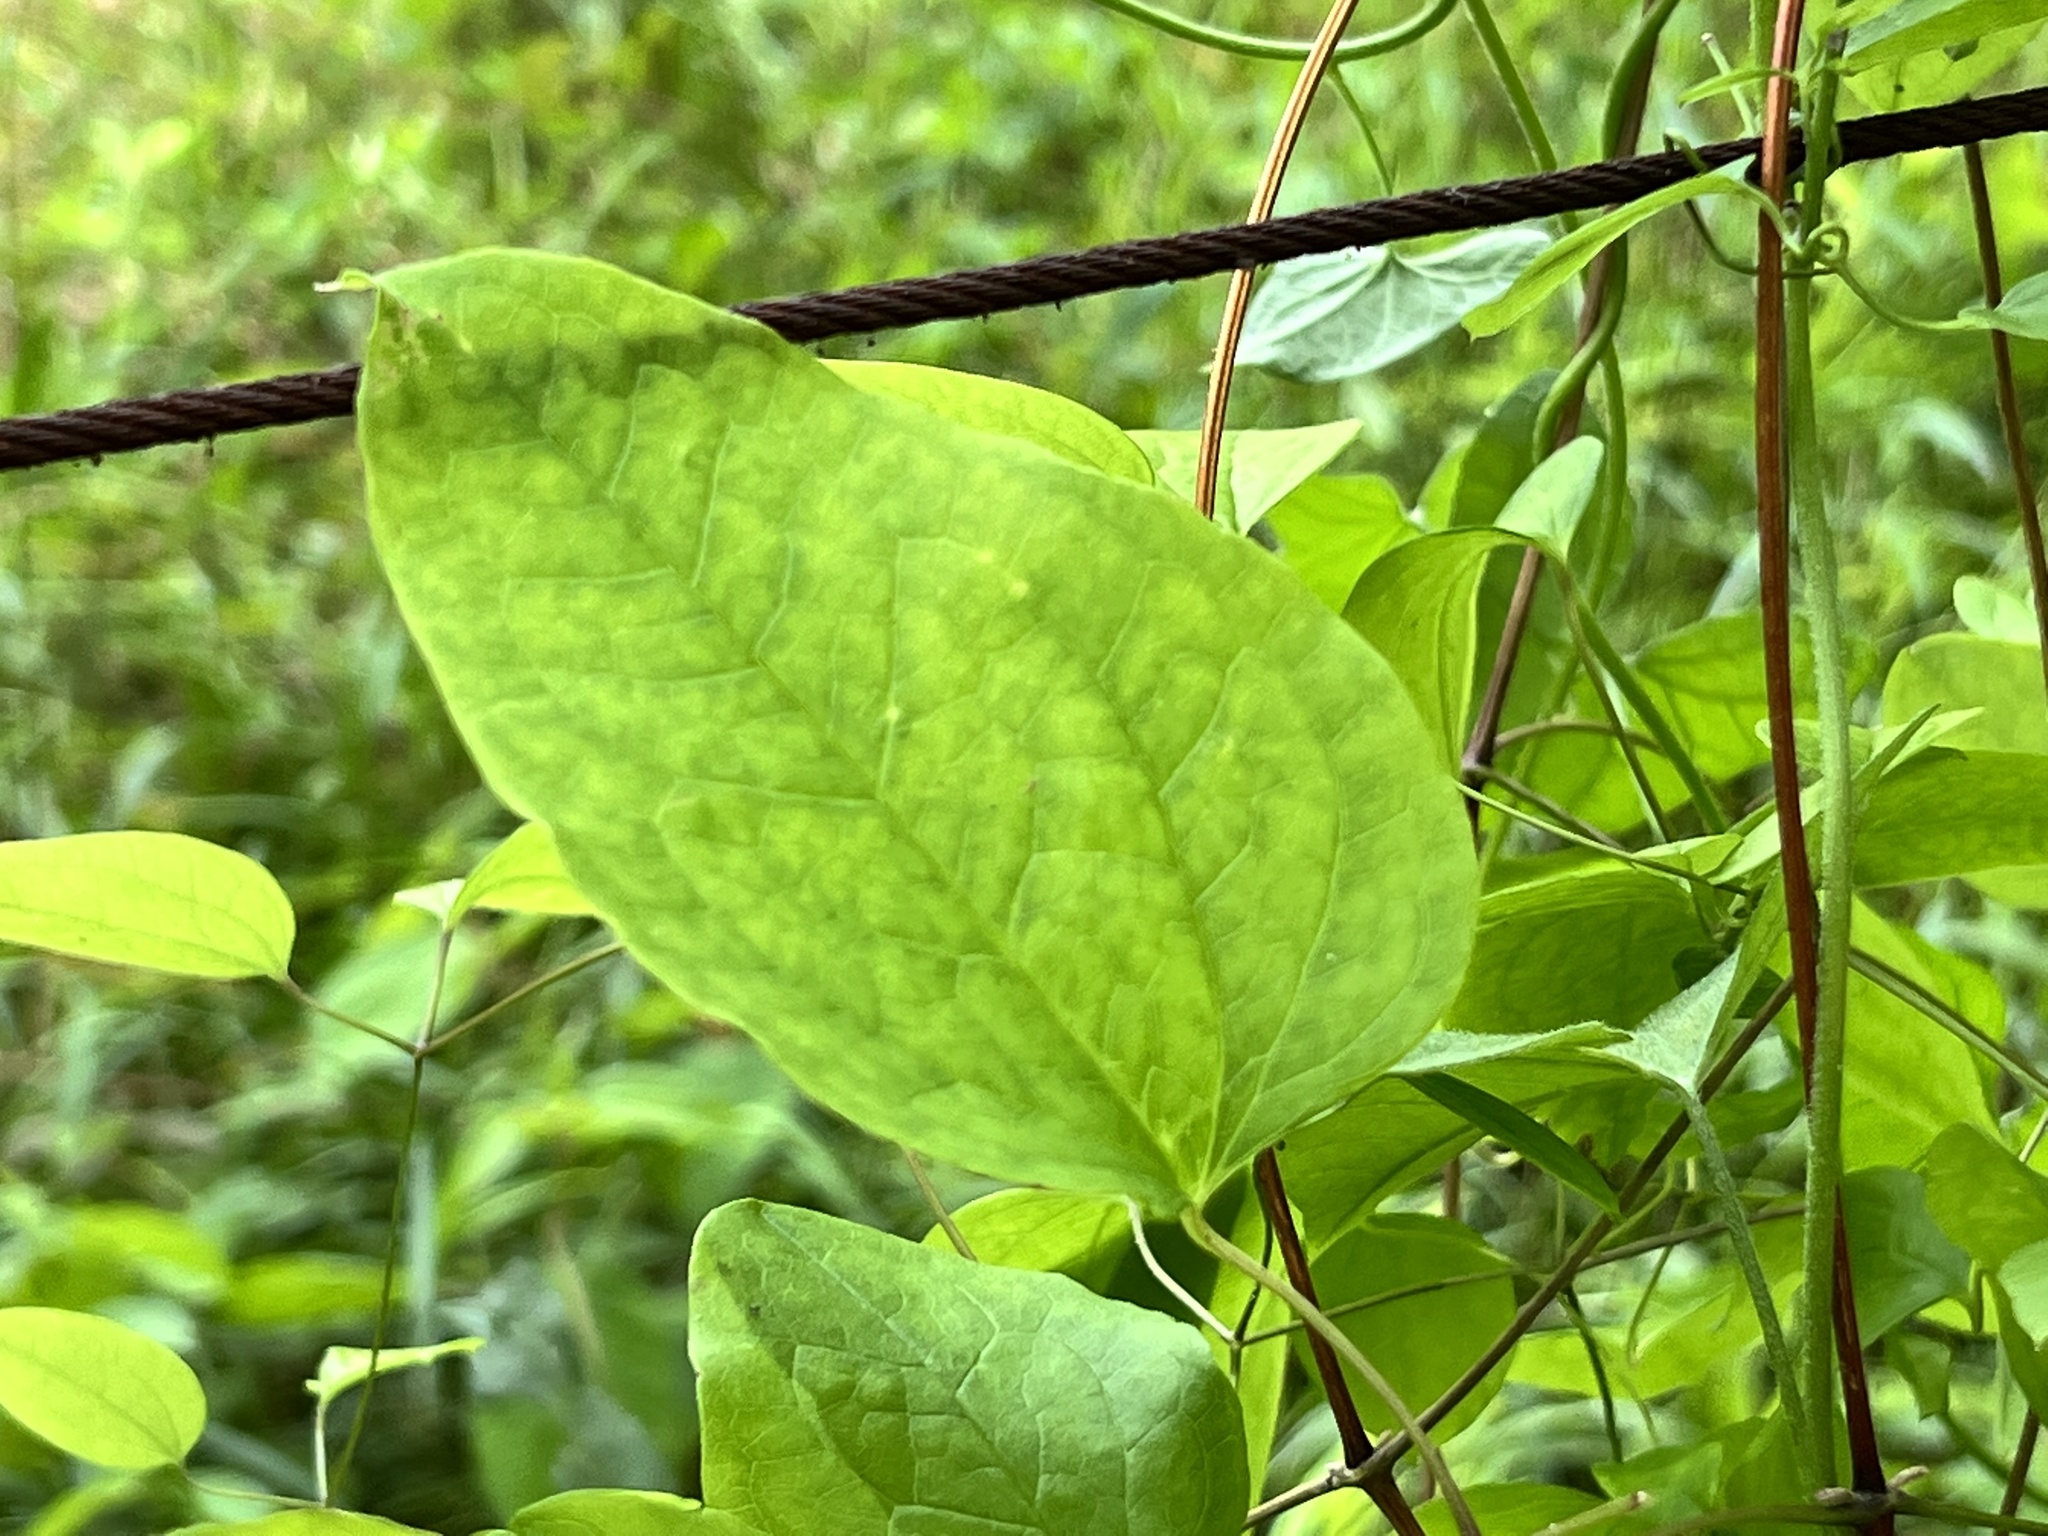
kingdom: Plantae
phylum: Tracheophyta
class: Magnoliopsida
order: Ranunculales
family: Ranunculaceae
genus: Clematis
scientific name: Clematis crispa
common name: Curly clematis
